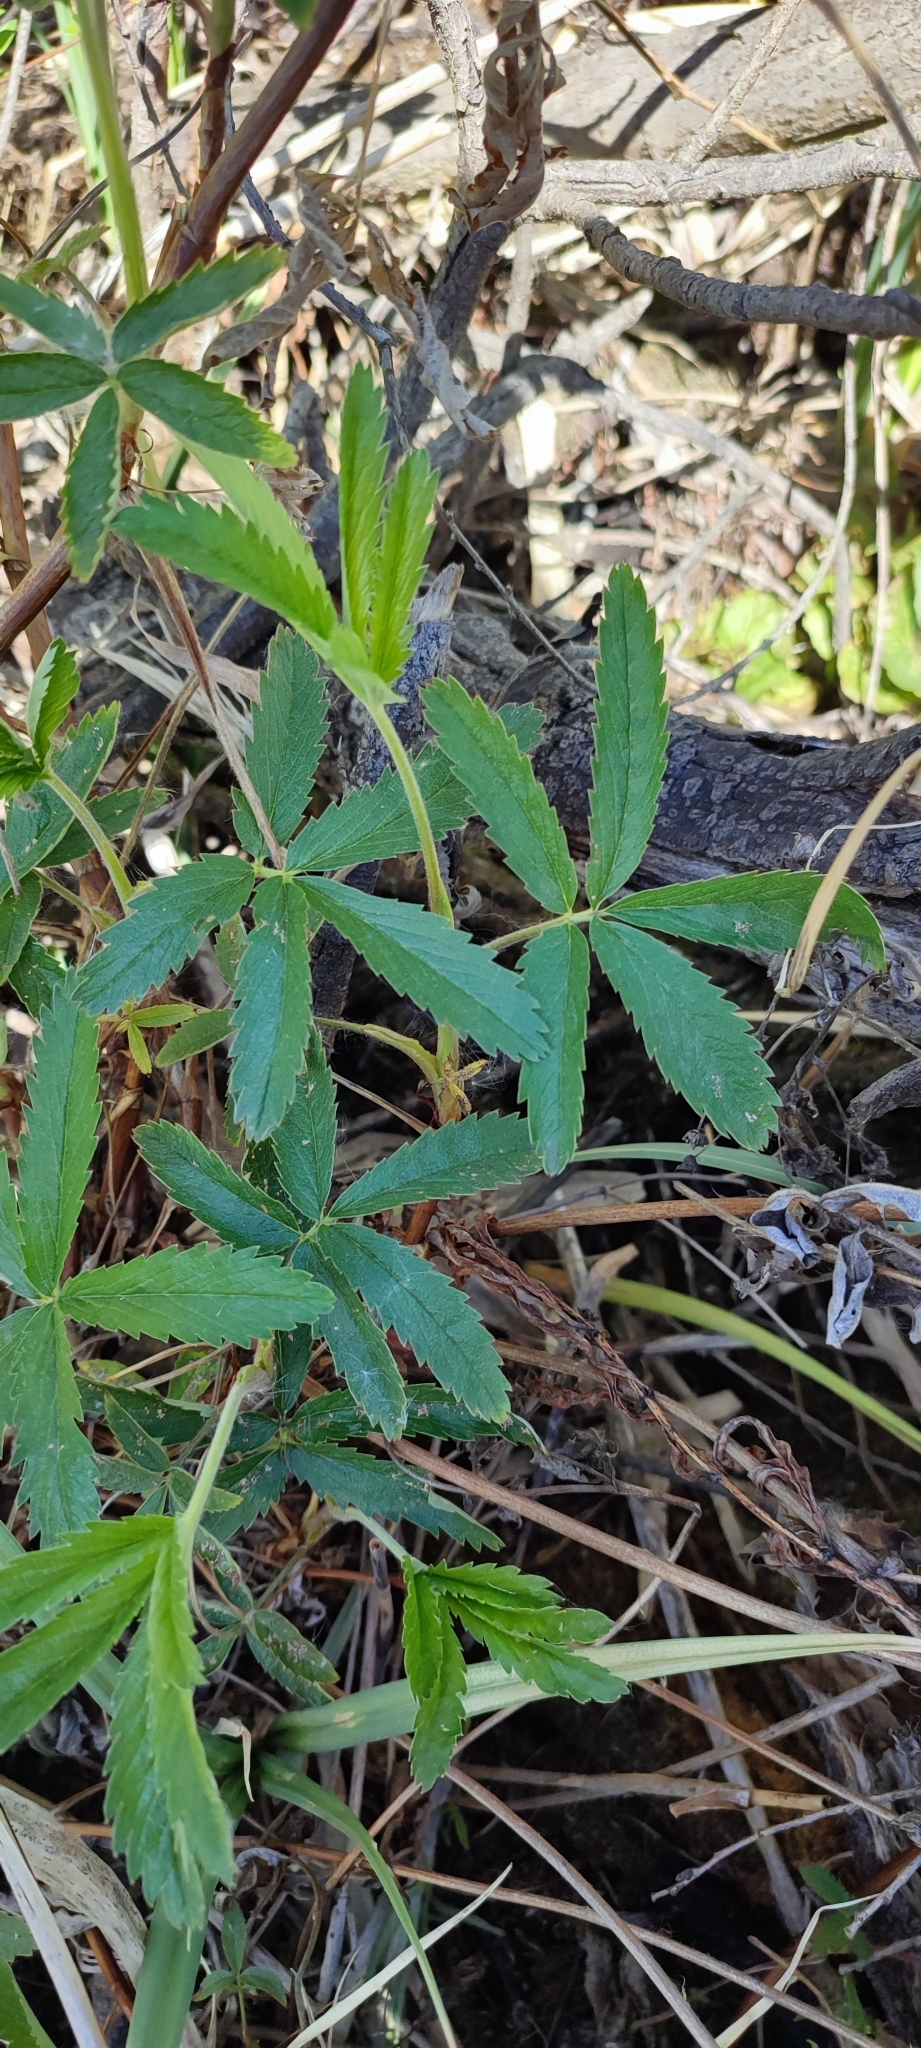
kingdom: Plantae
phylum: Tracheophyta
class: Magnoliopsida
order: Rosales
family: Rosaceae
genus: Comarum
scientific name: Comarum palustre
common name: Marsh cinquefoil
